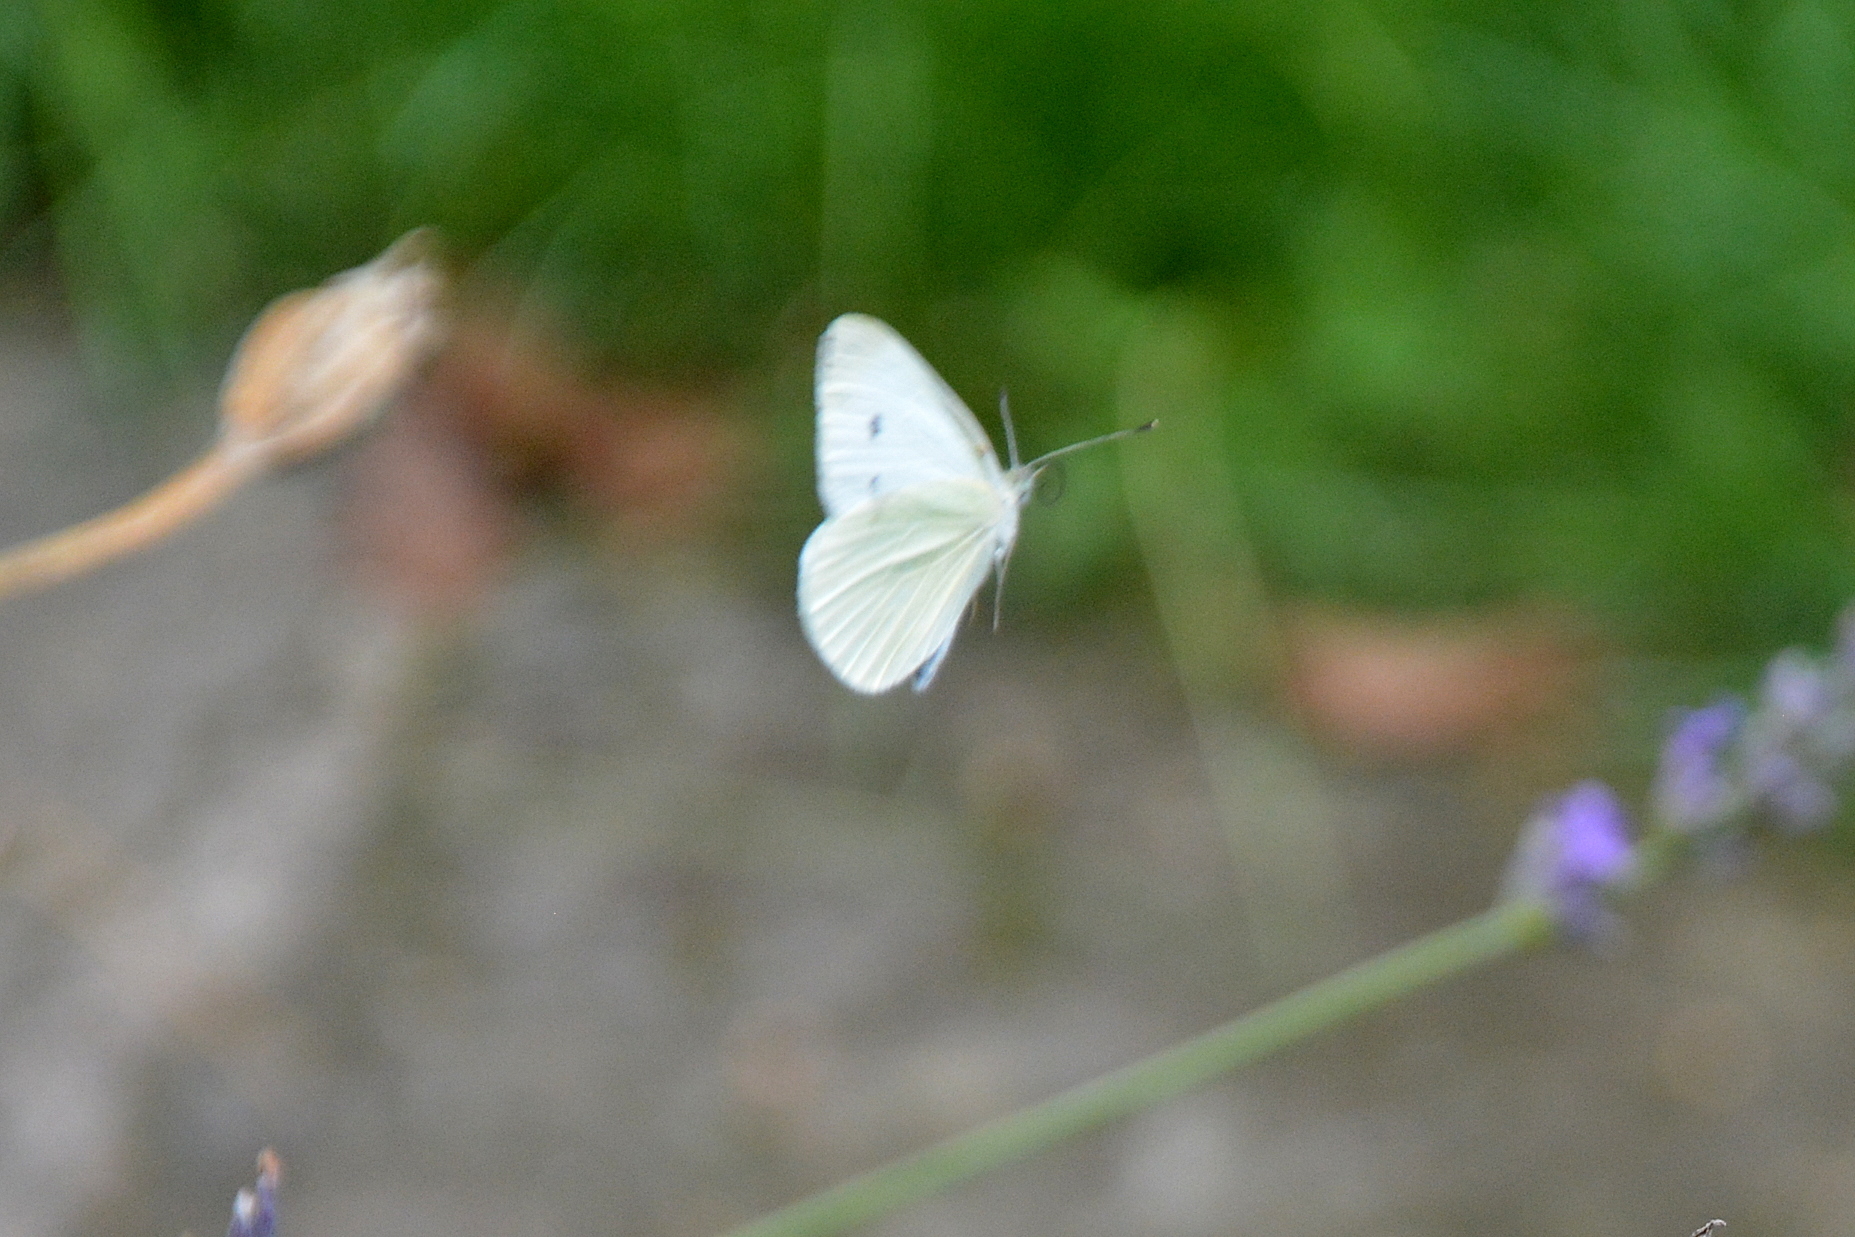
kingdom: Animalia
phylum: Arthropoda
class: Insecta
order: Lepidoptera
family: Pieridae
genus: Pieris
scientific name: Pieris rapae
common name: Small white
